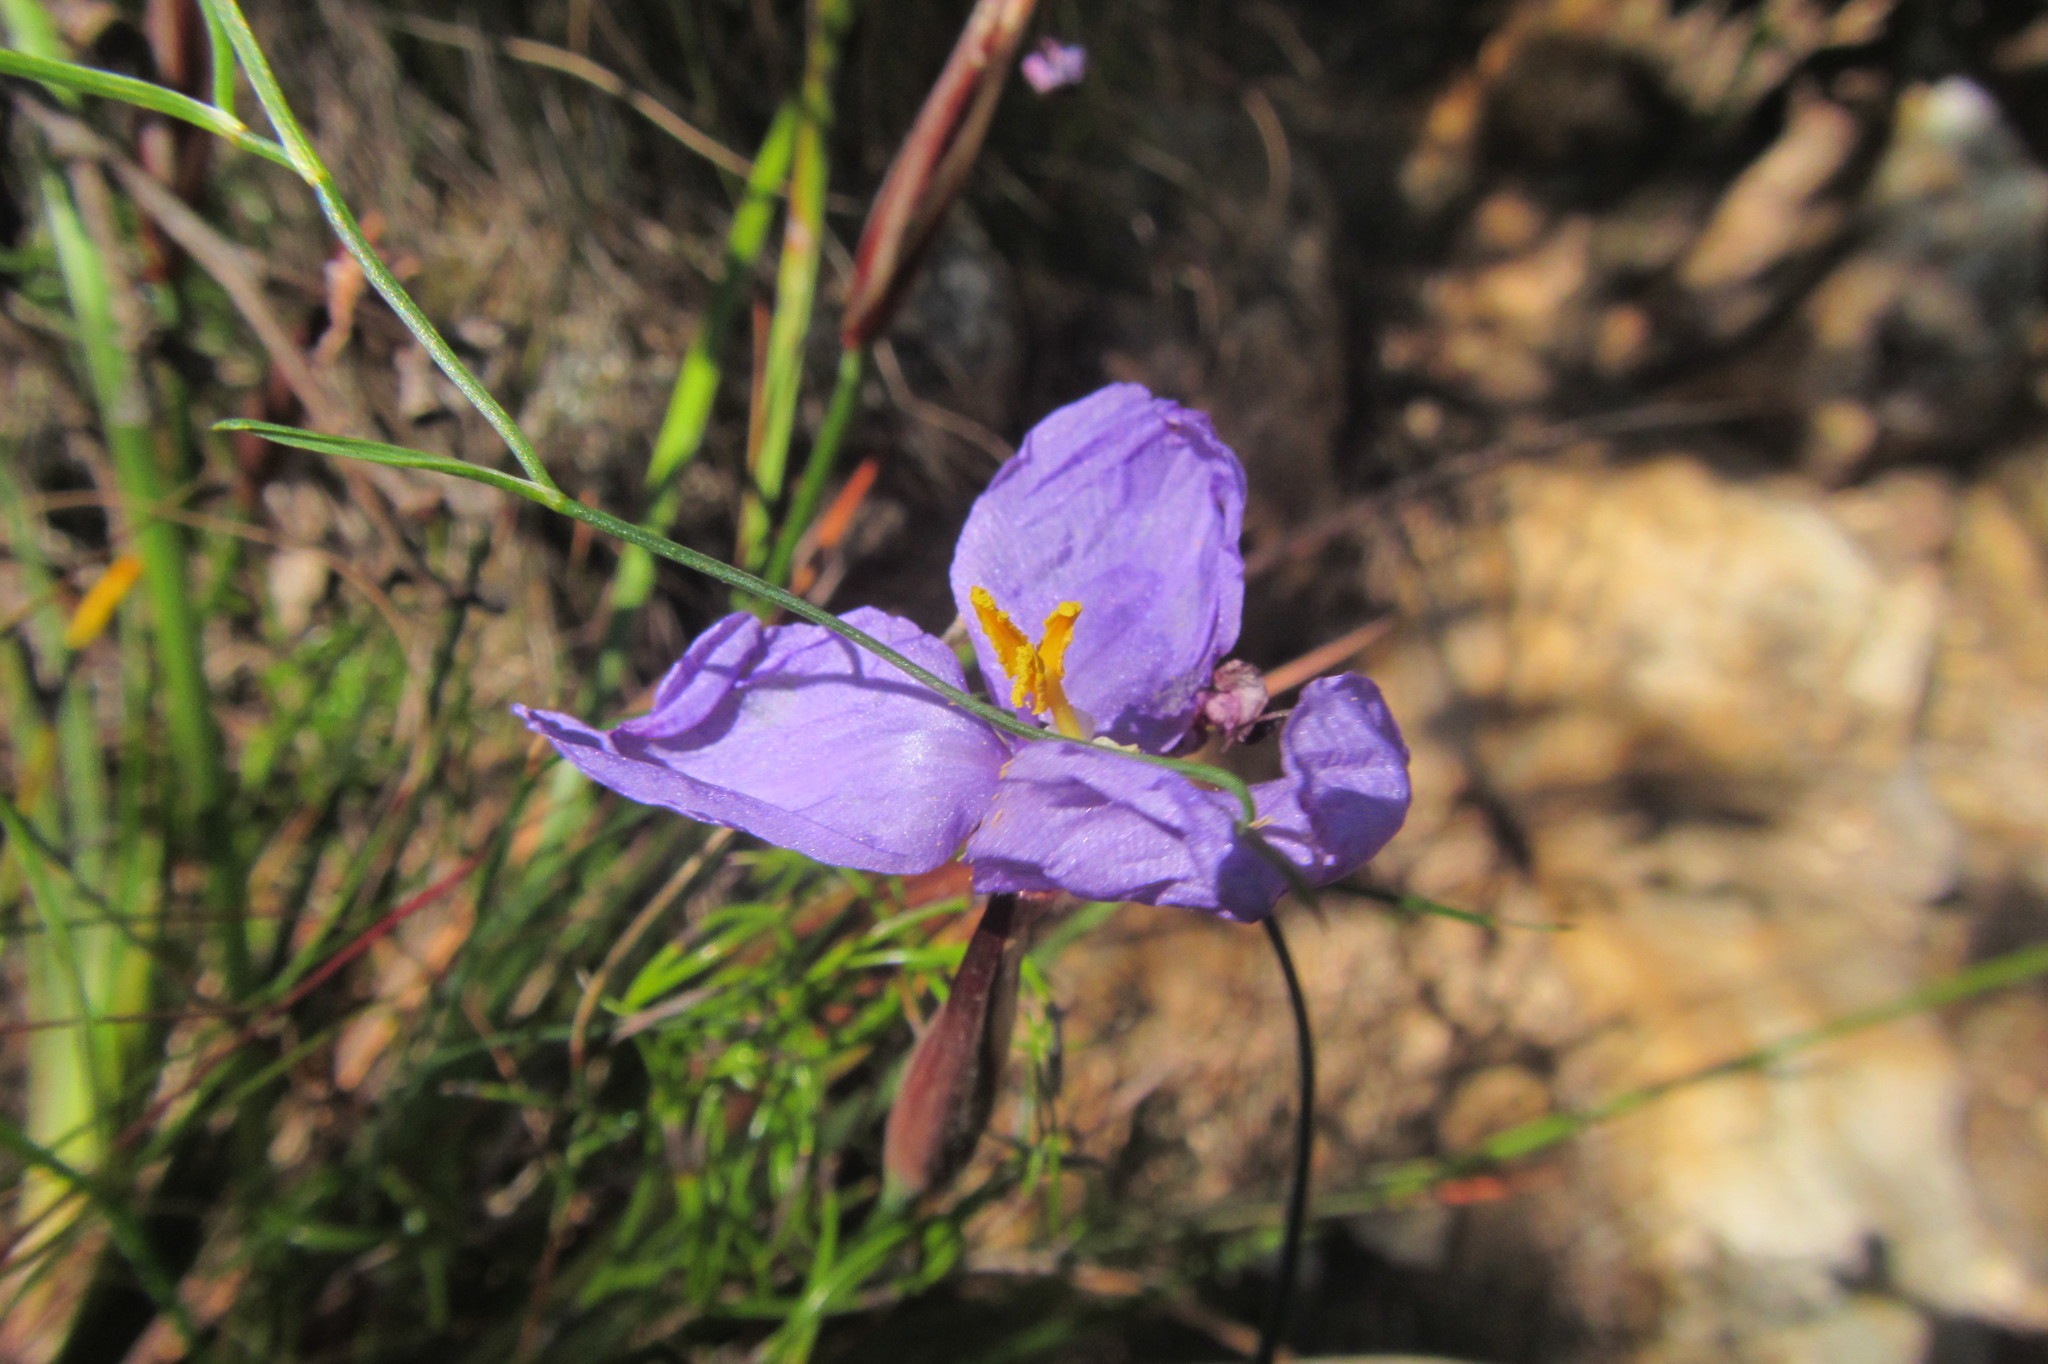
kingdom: Plantae
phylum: Tracheophyta
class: Liliopsida
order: Asparagales
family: Iridaceae
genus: Patersonia
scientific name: Patersonia sericea
